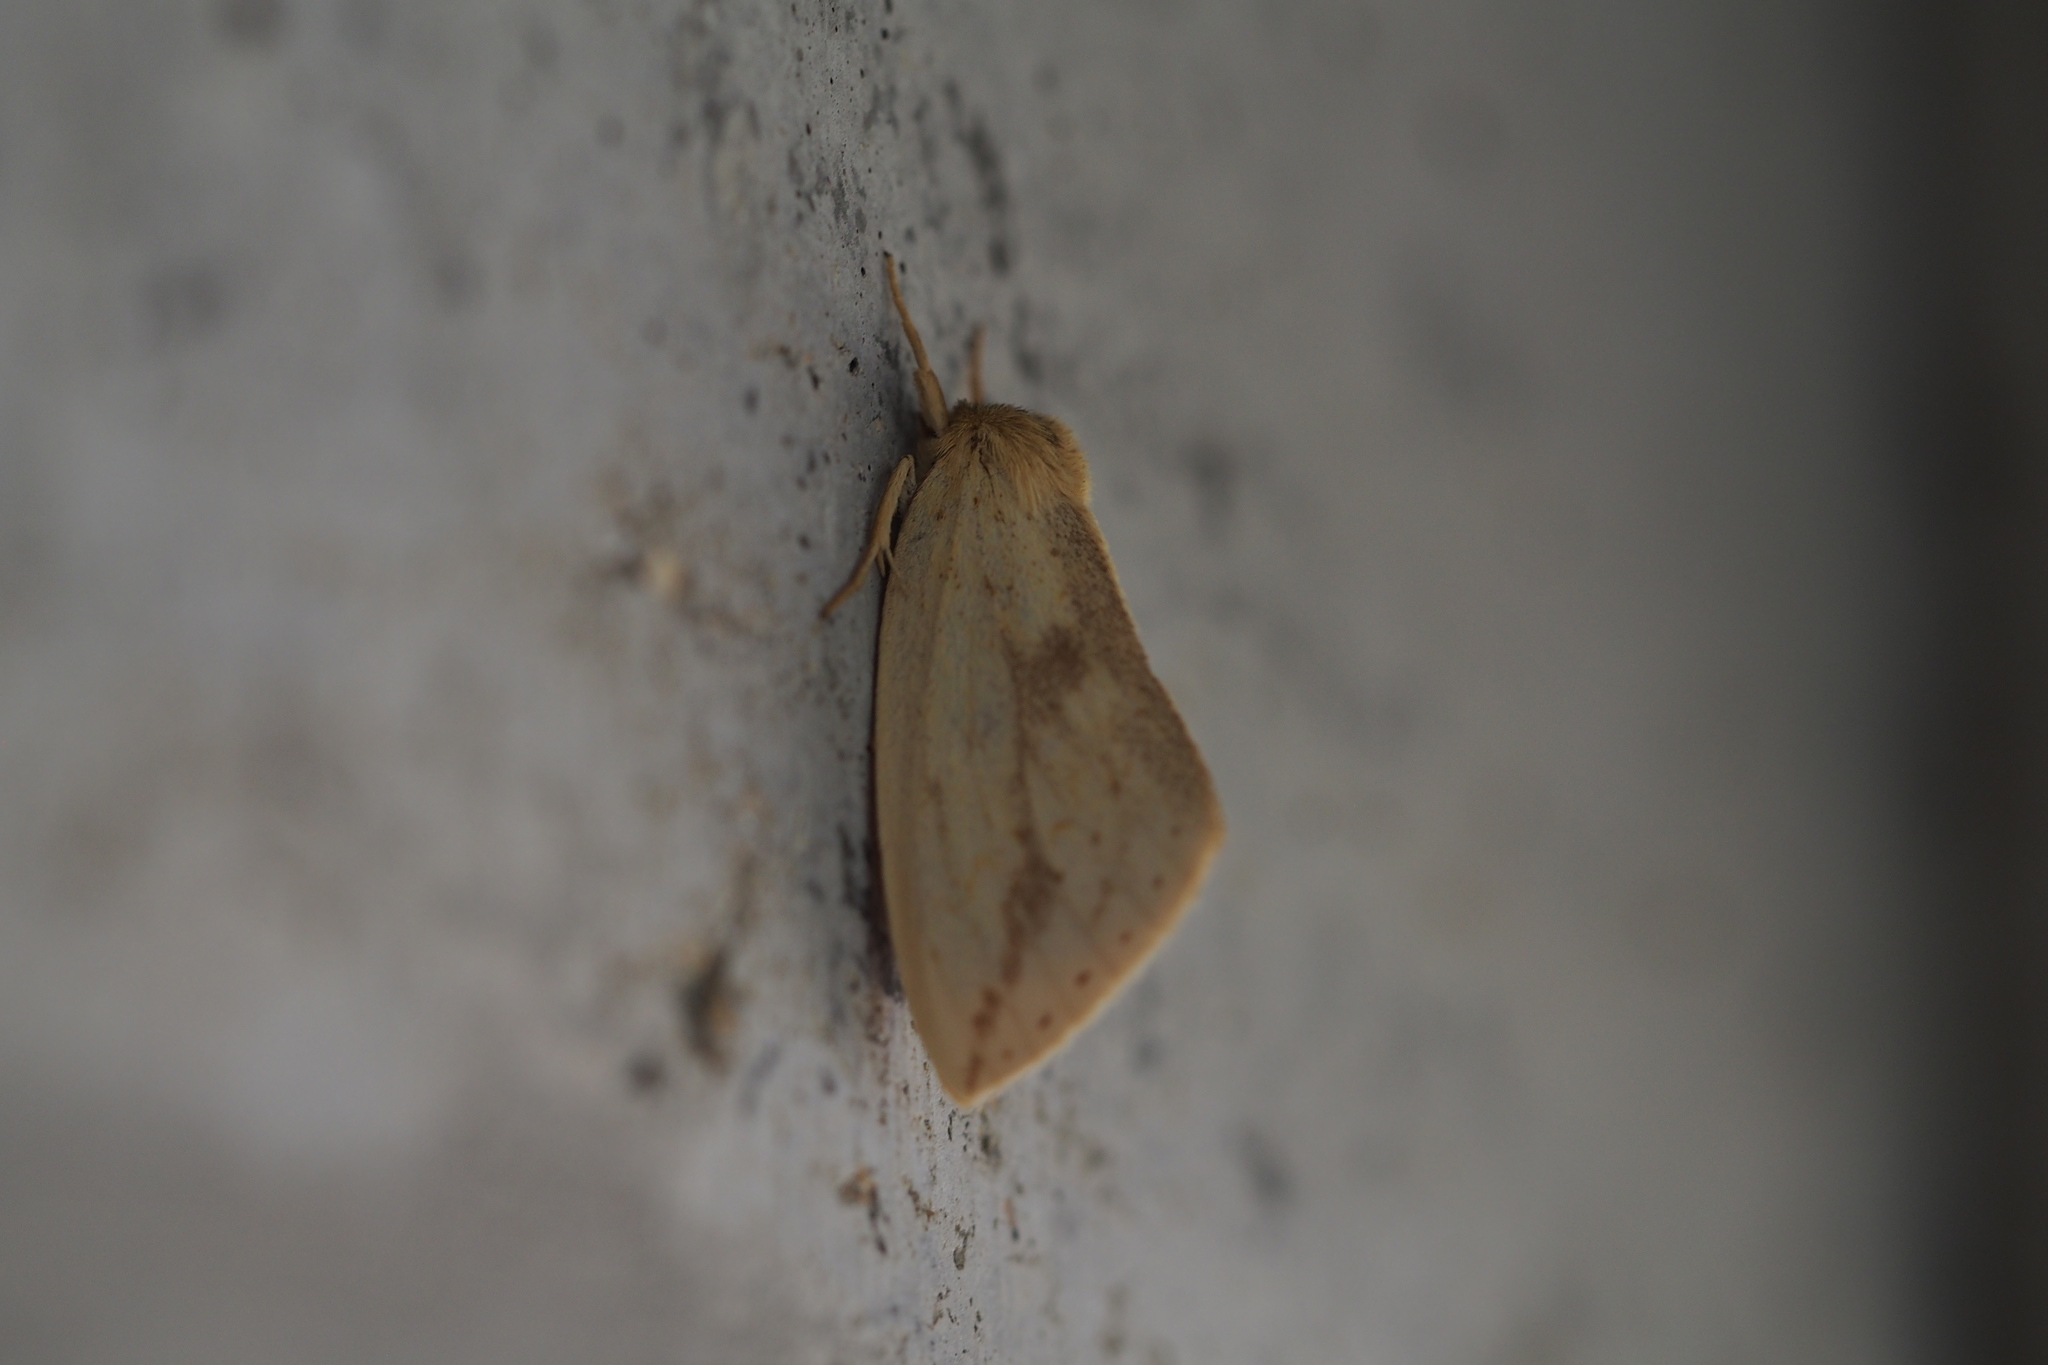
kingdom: Animalia
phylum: Arthropoda
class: Insecta
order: Lepidoptera
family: Notodontidae
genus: Cutuza
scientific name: Cutuza
